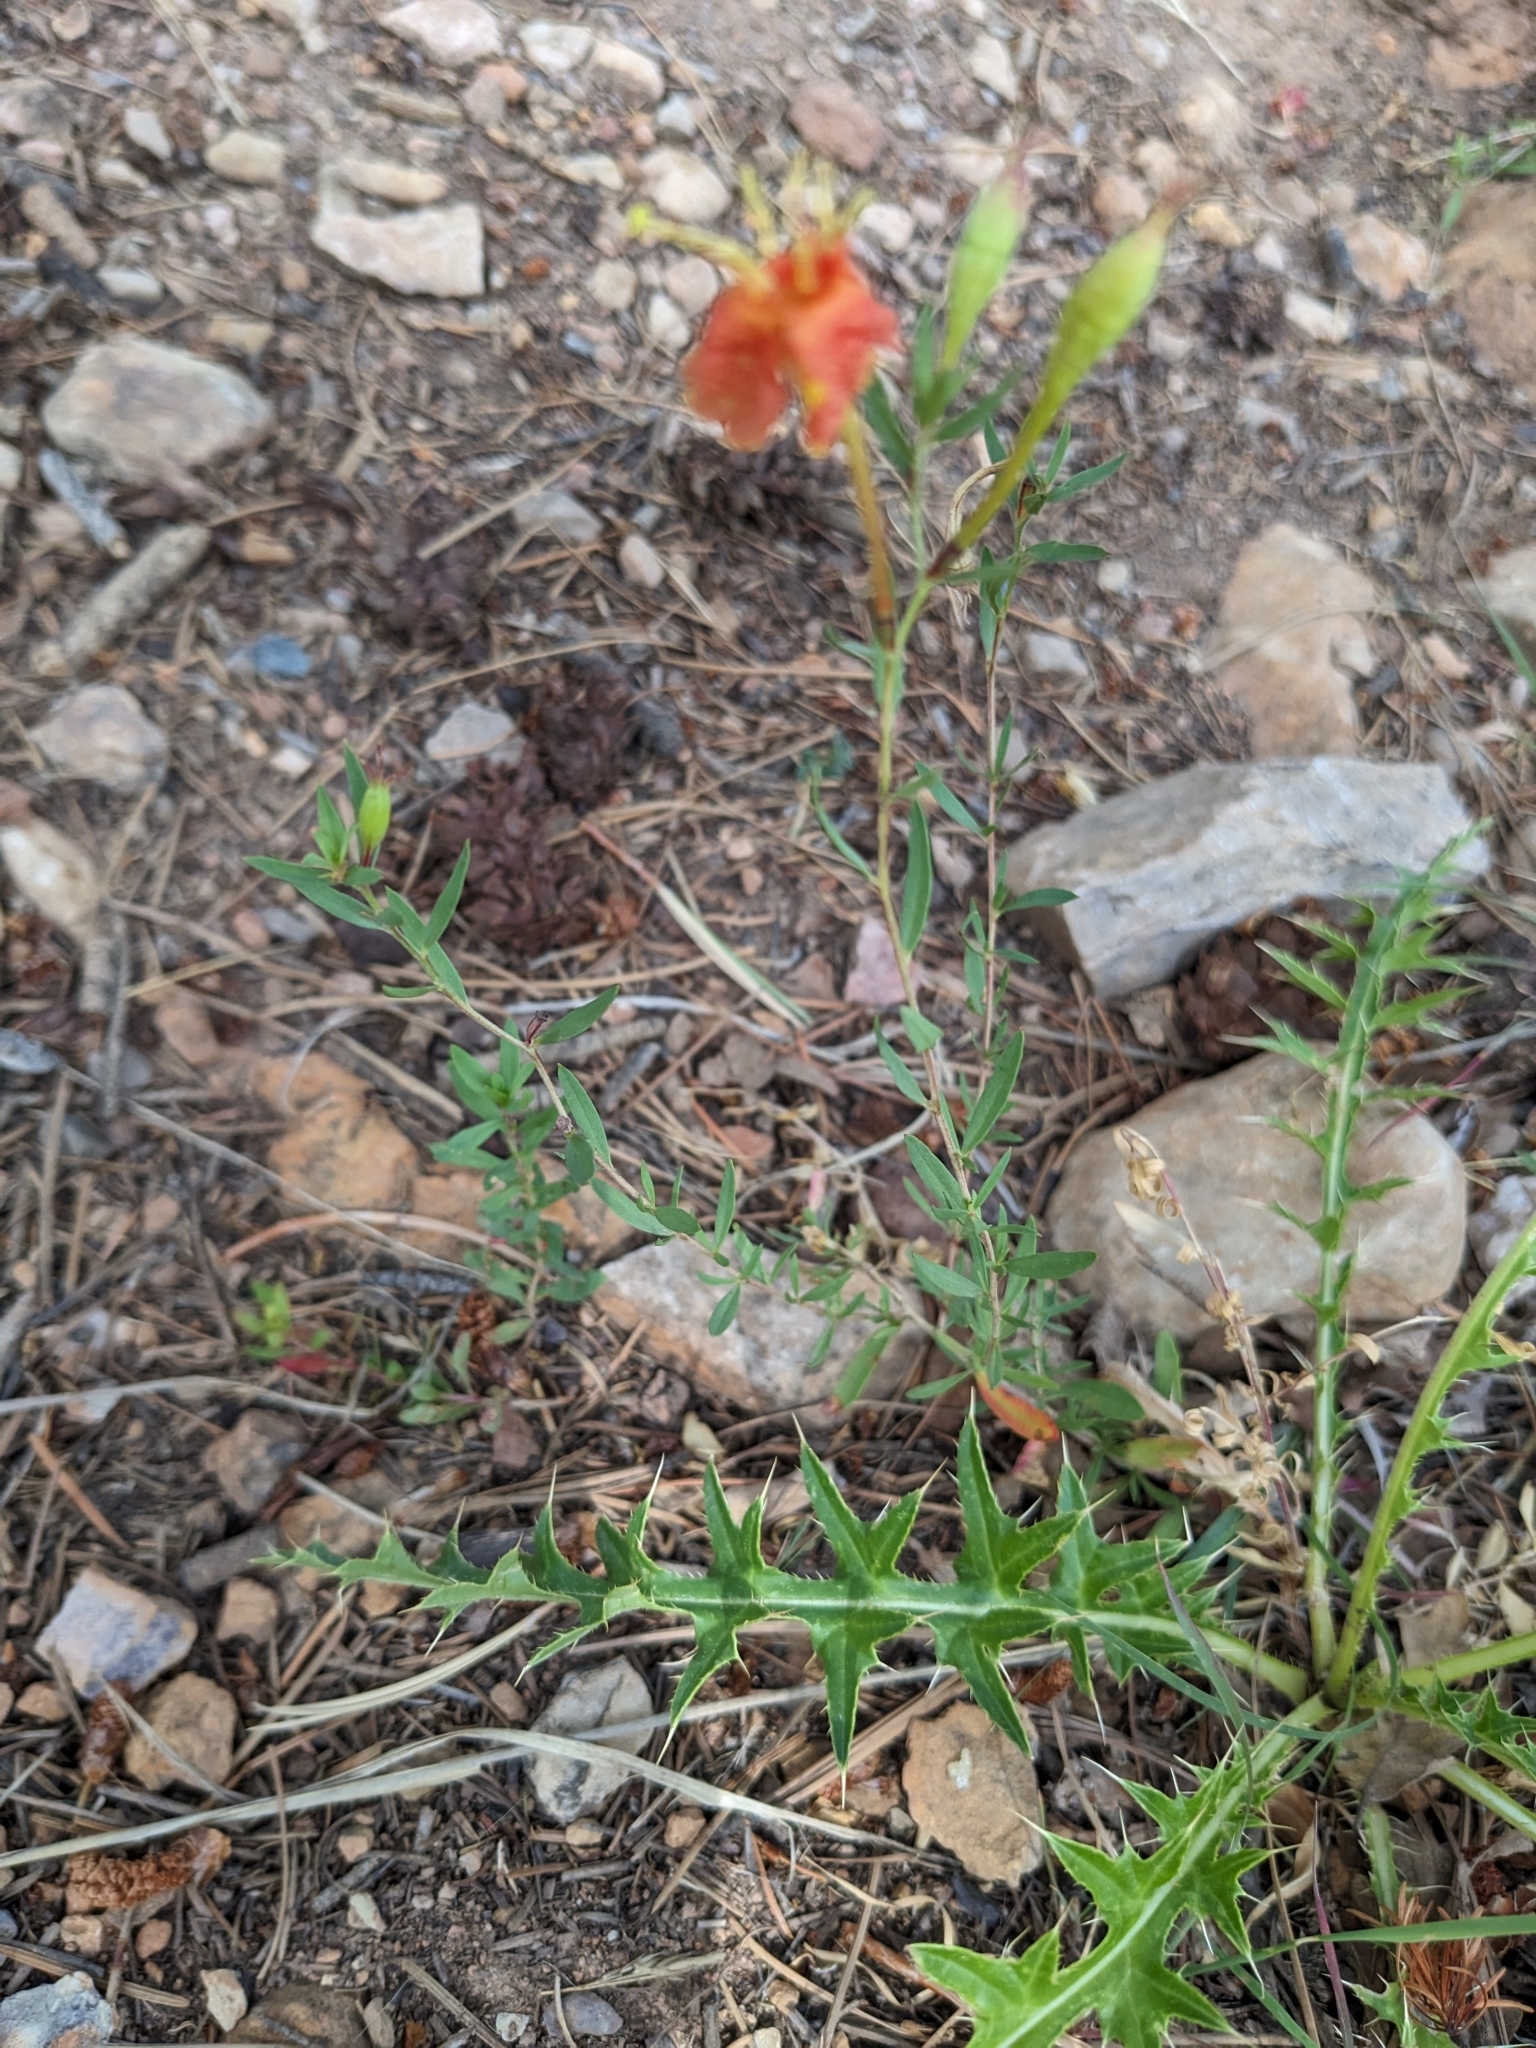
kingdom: Plantae
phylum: Tracheophyta
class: Magnoliopsida
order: Myrtales
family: Onagraceae
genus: Oenothera
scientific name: Oenothera toumeyi
